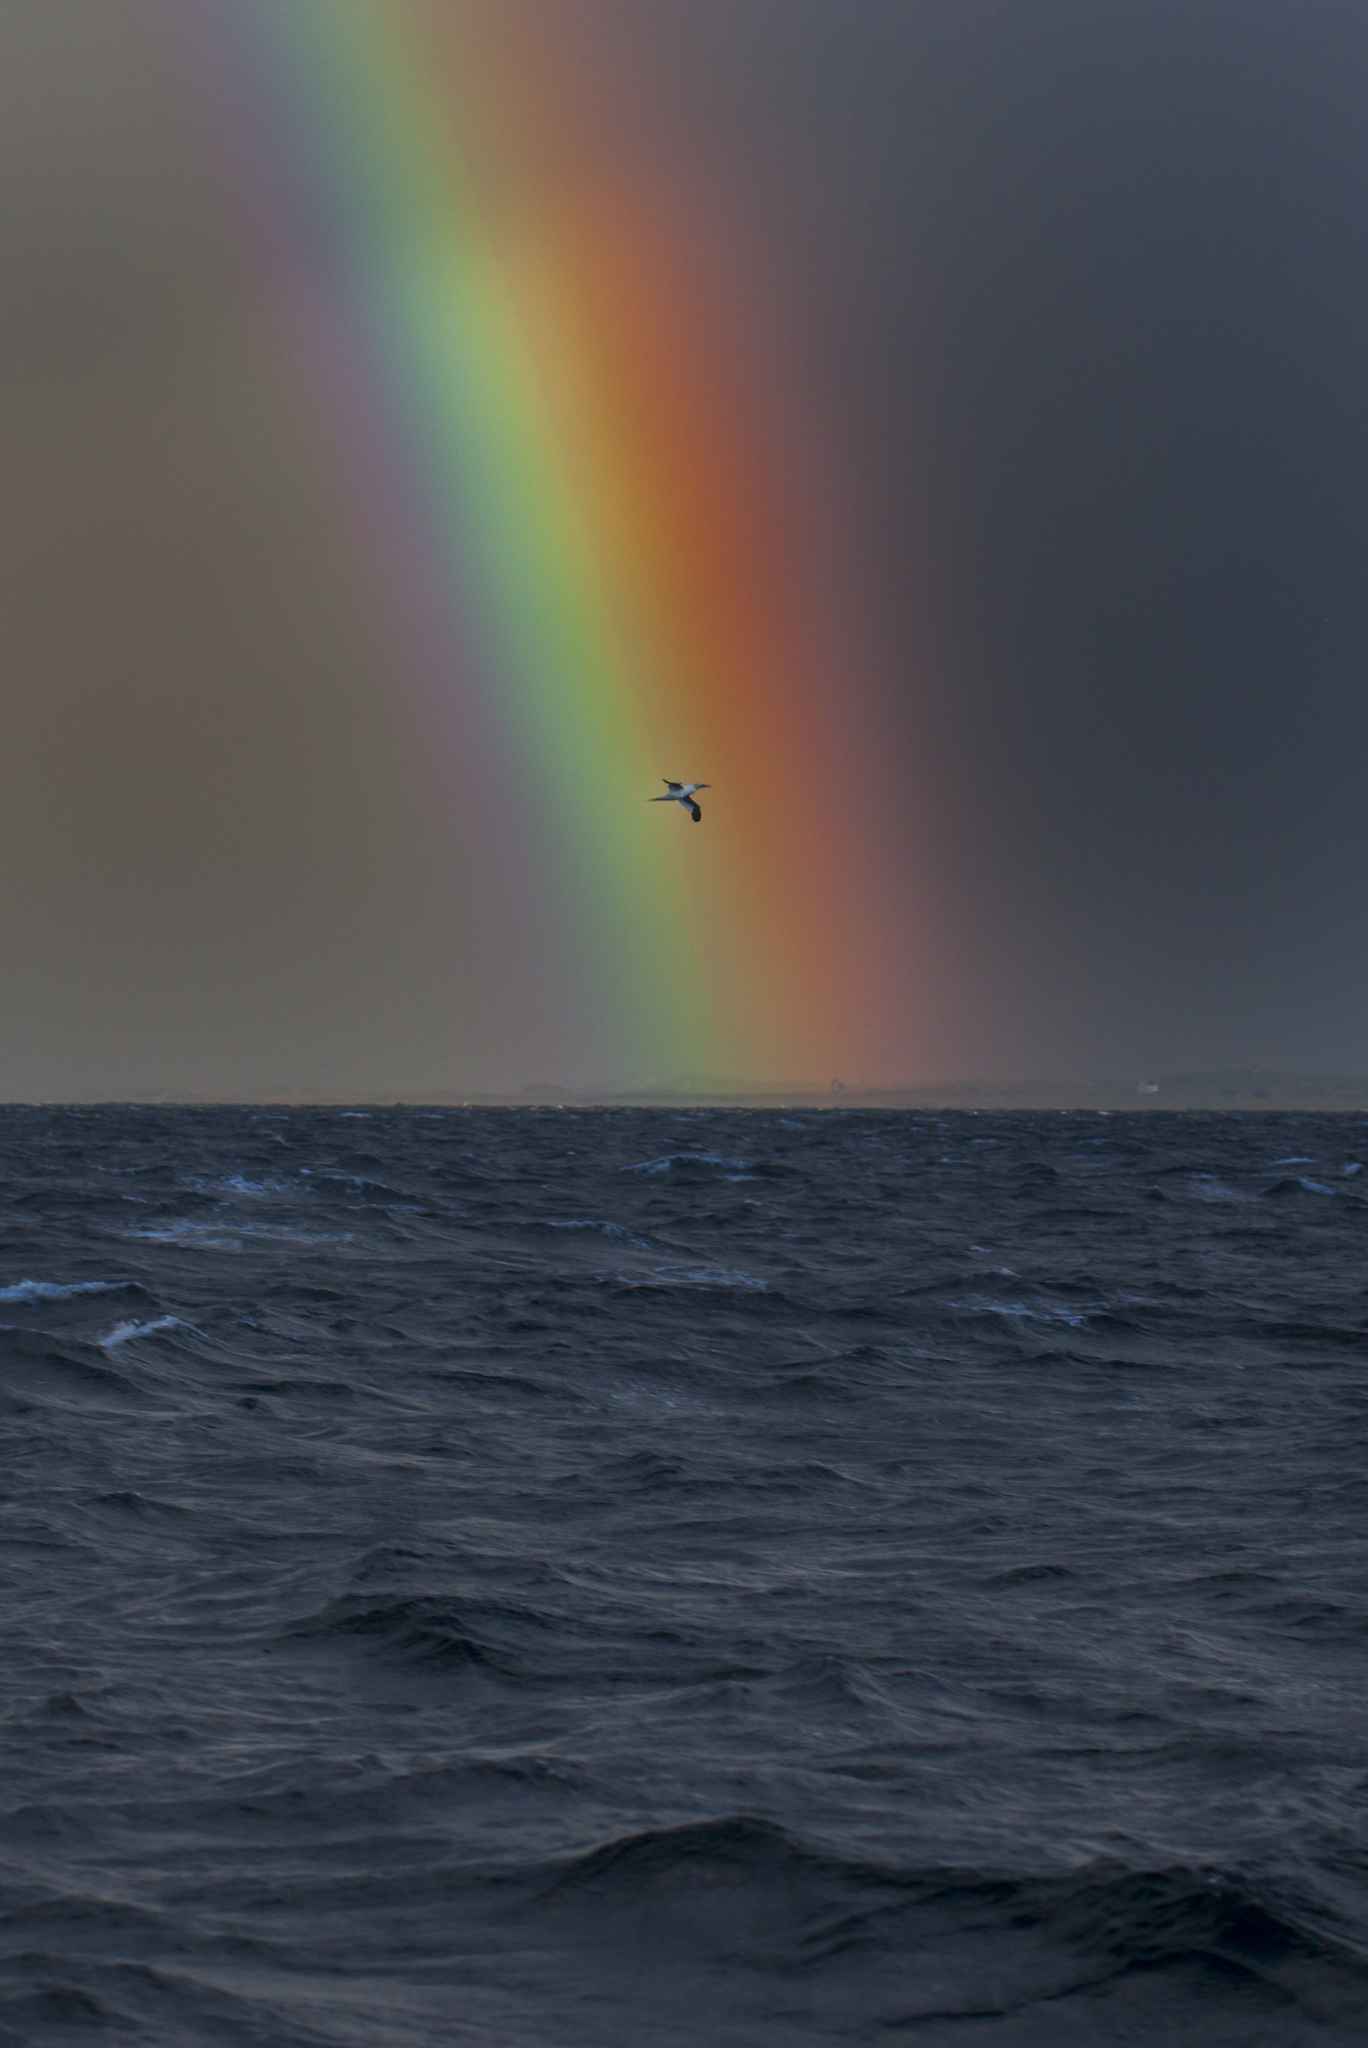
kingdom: Animalia
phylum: Chordata
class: Aves
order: Suliformes
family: Sulidae
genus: Morus
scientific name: Morus bassanus
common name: Northern gannet
